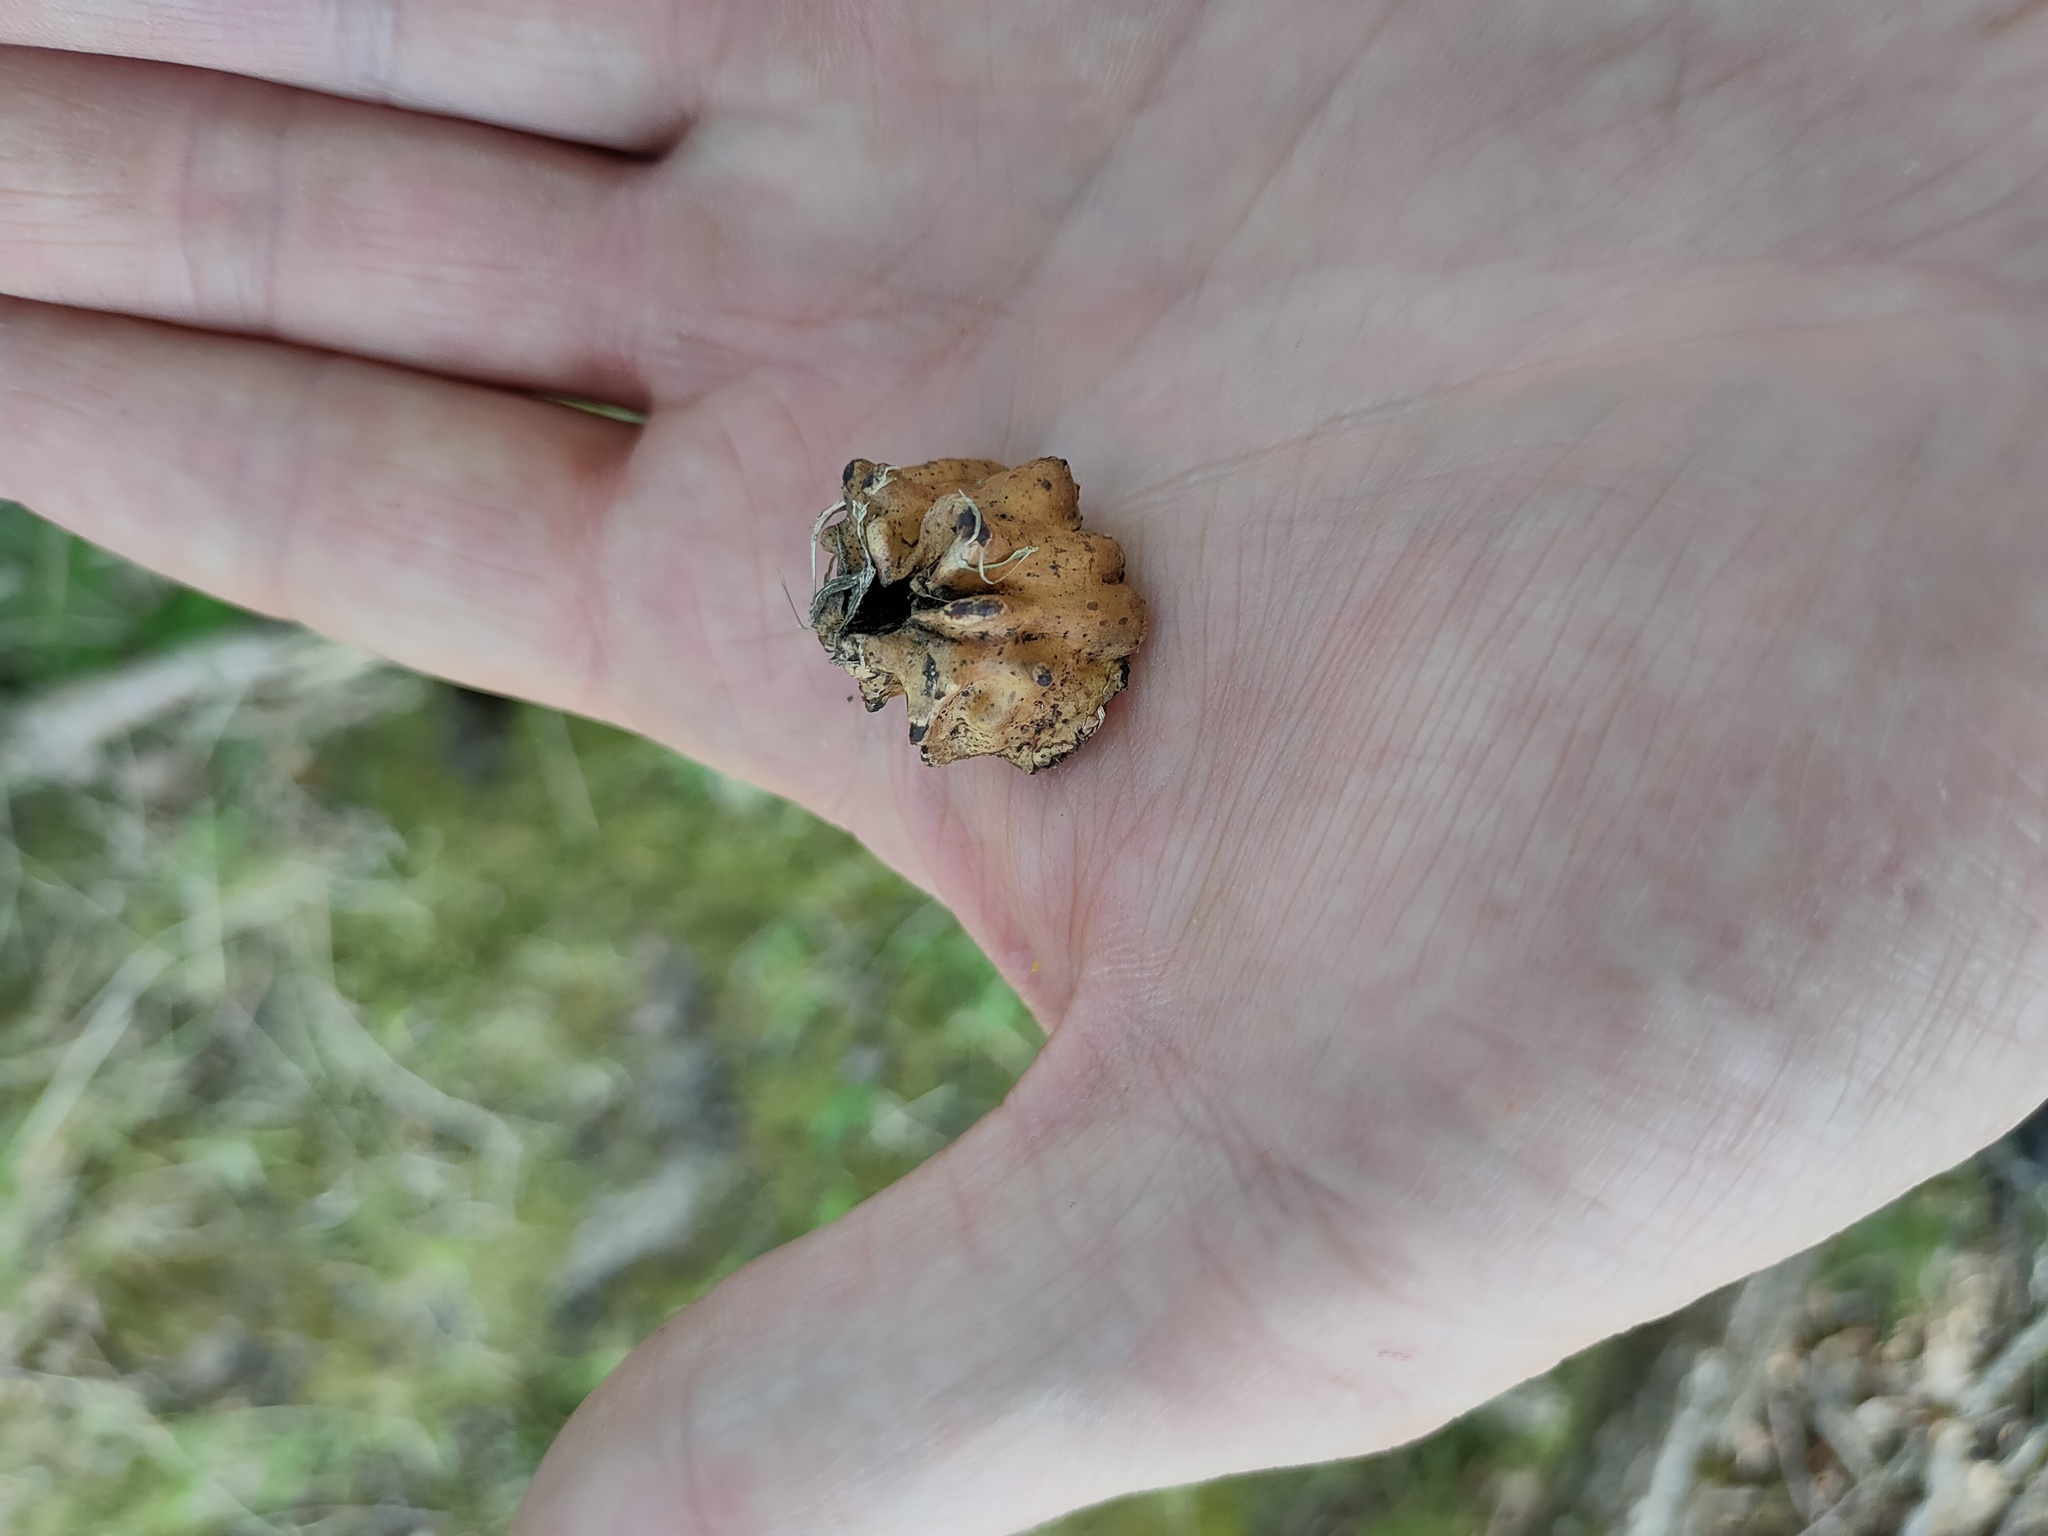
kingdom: Animalia
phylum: Arthropoda
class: Insecta
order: Hymenoptera
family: Cynipidae
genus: Andricus
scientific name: Andricus quercuscalicis
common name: Knopper gall
